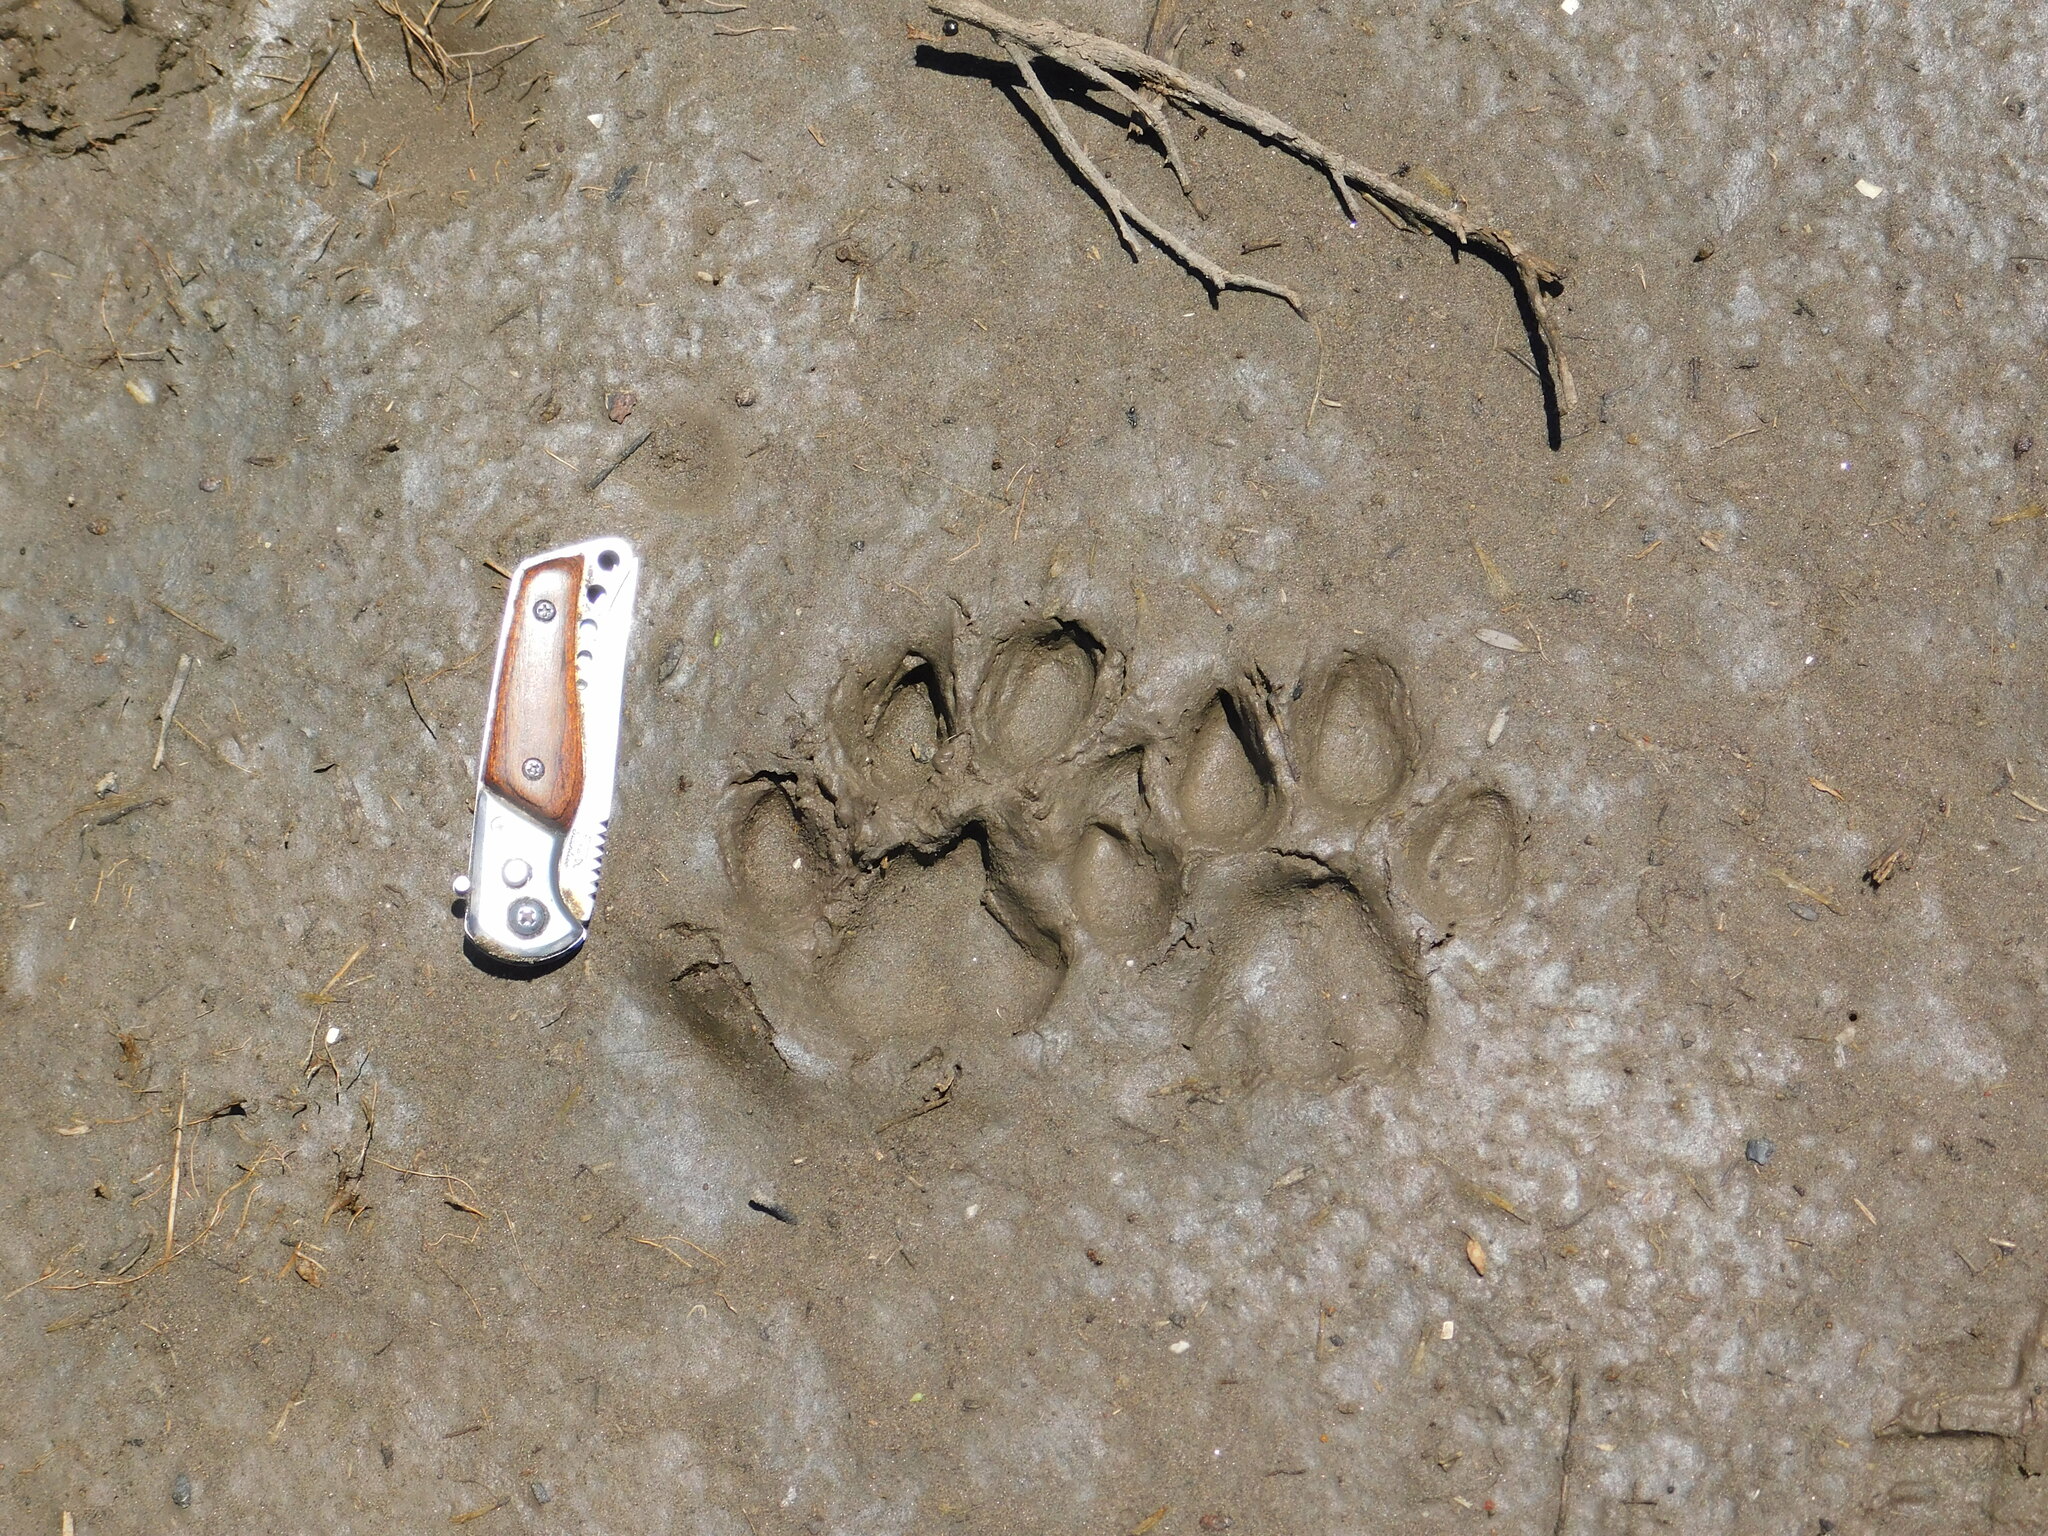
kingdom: Animalia
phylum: Chordata
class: Mammalia
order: Carnivora
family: Felidae
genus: Puma
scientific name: Puma concolor
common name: Puma
